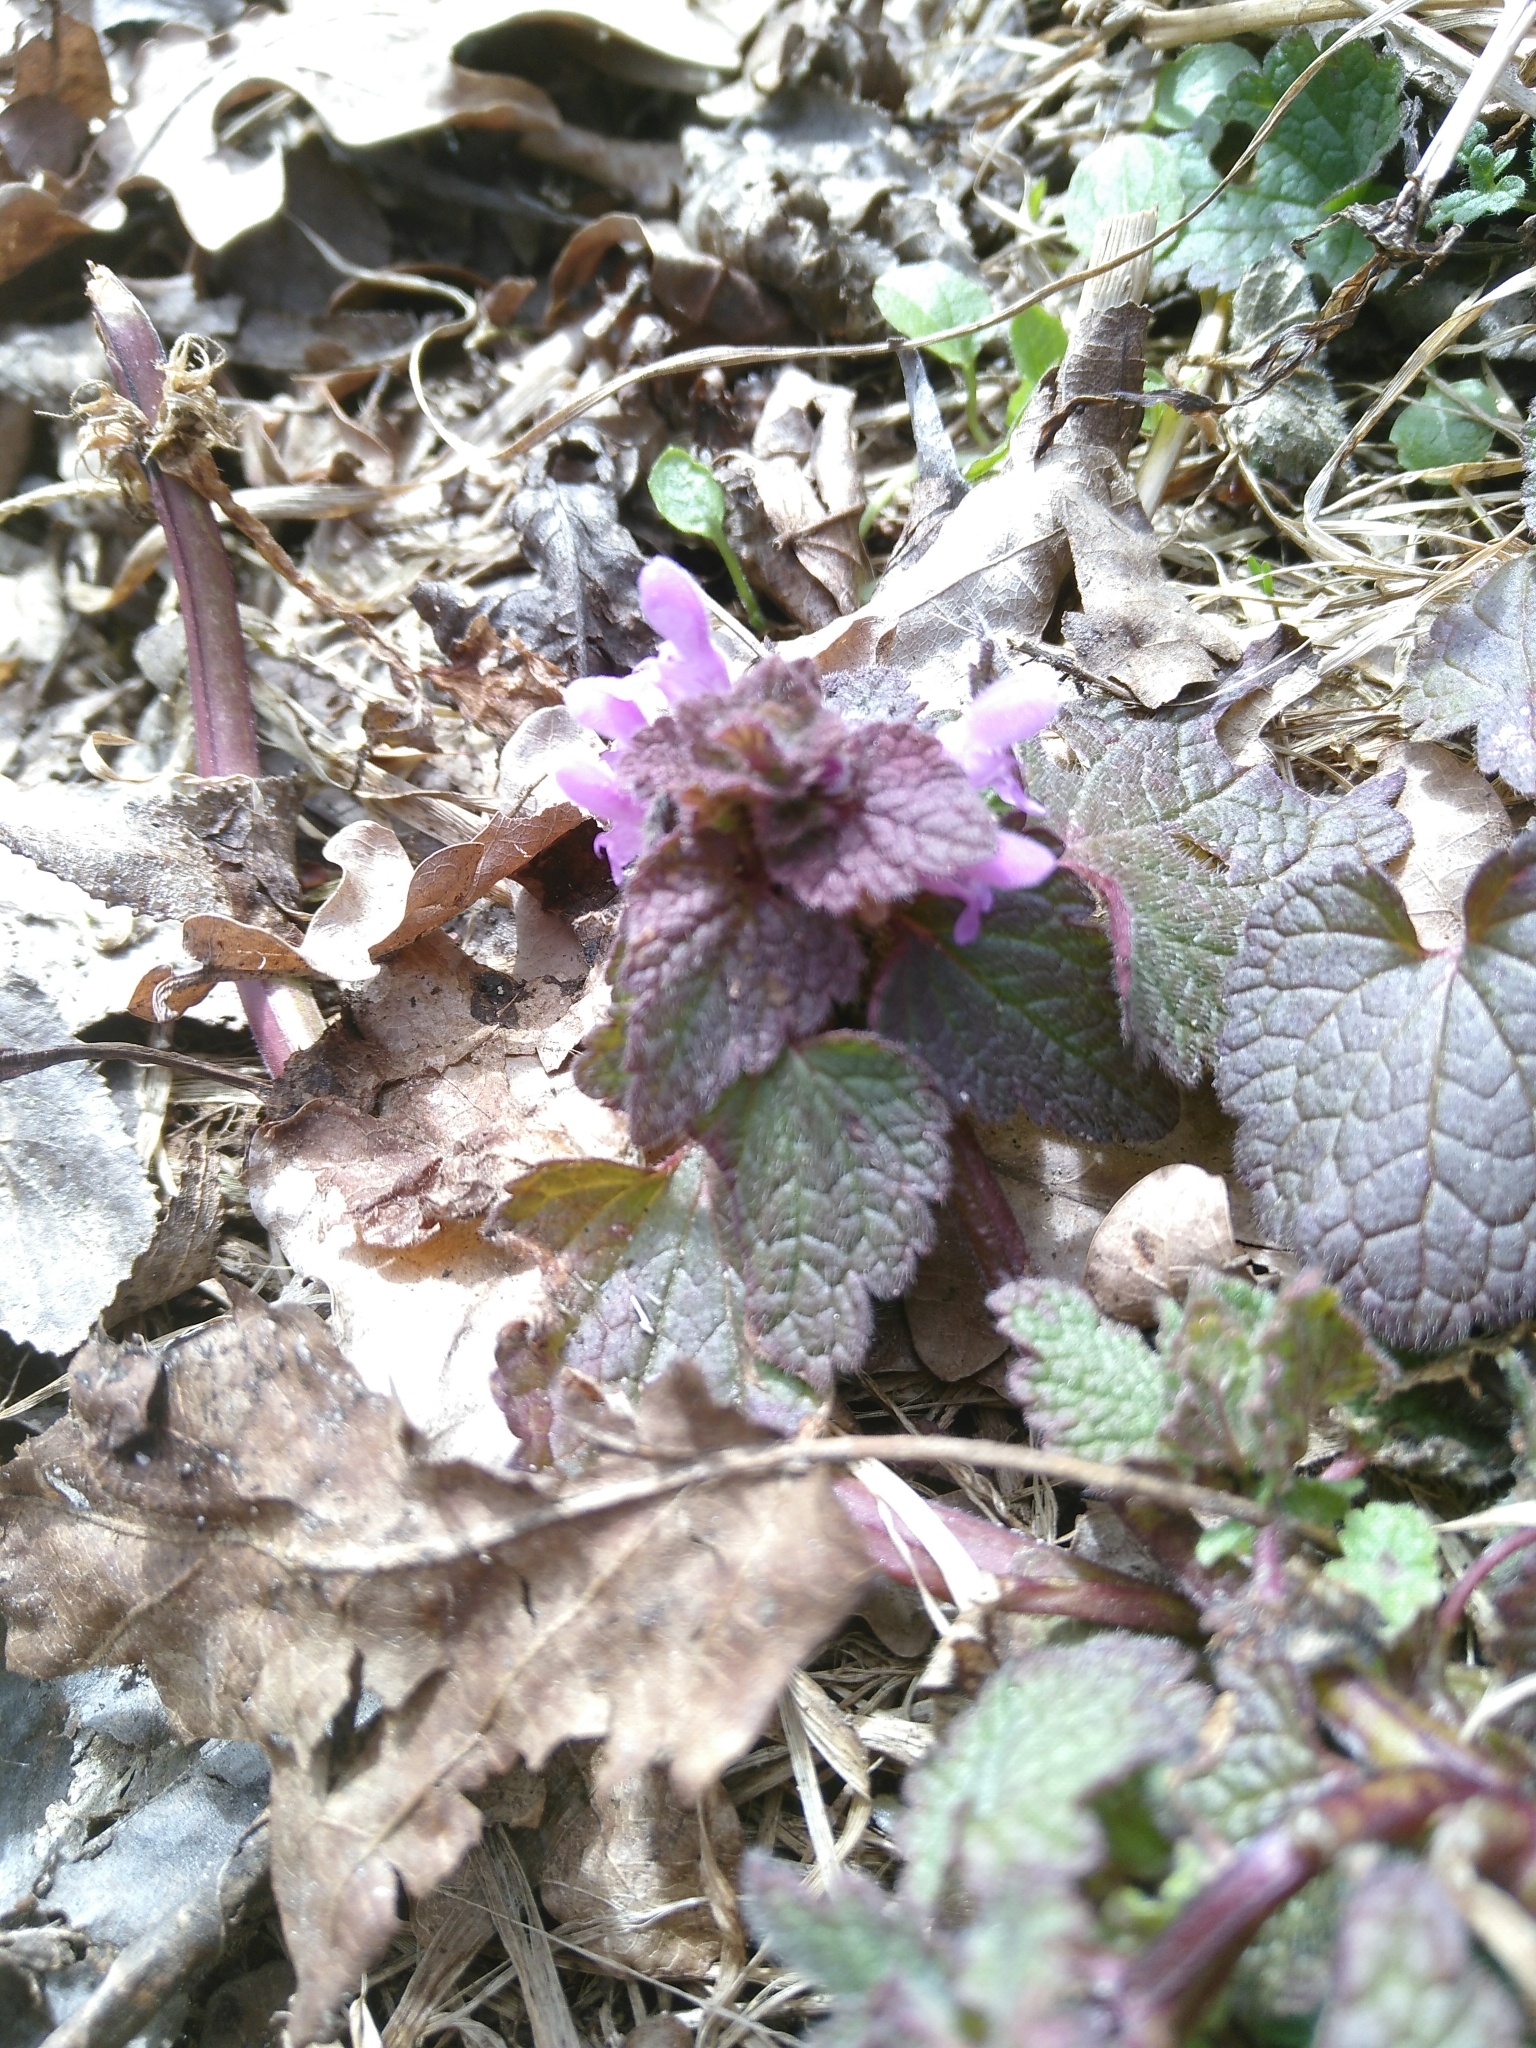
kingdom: Plantae
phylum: Tracheophyta
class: Magnoliopsida
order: Lamiales
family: Lamiaceae
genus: Lamium
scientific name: Lamium purpureum
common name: Red dead-nettle
